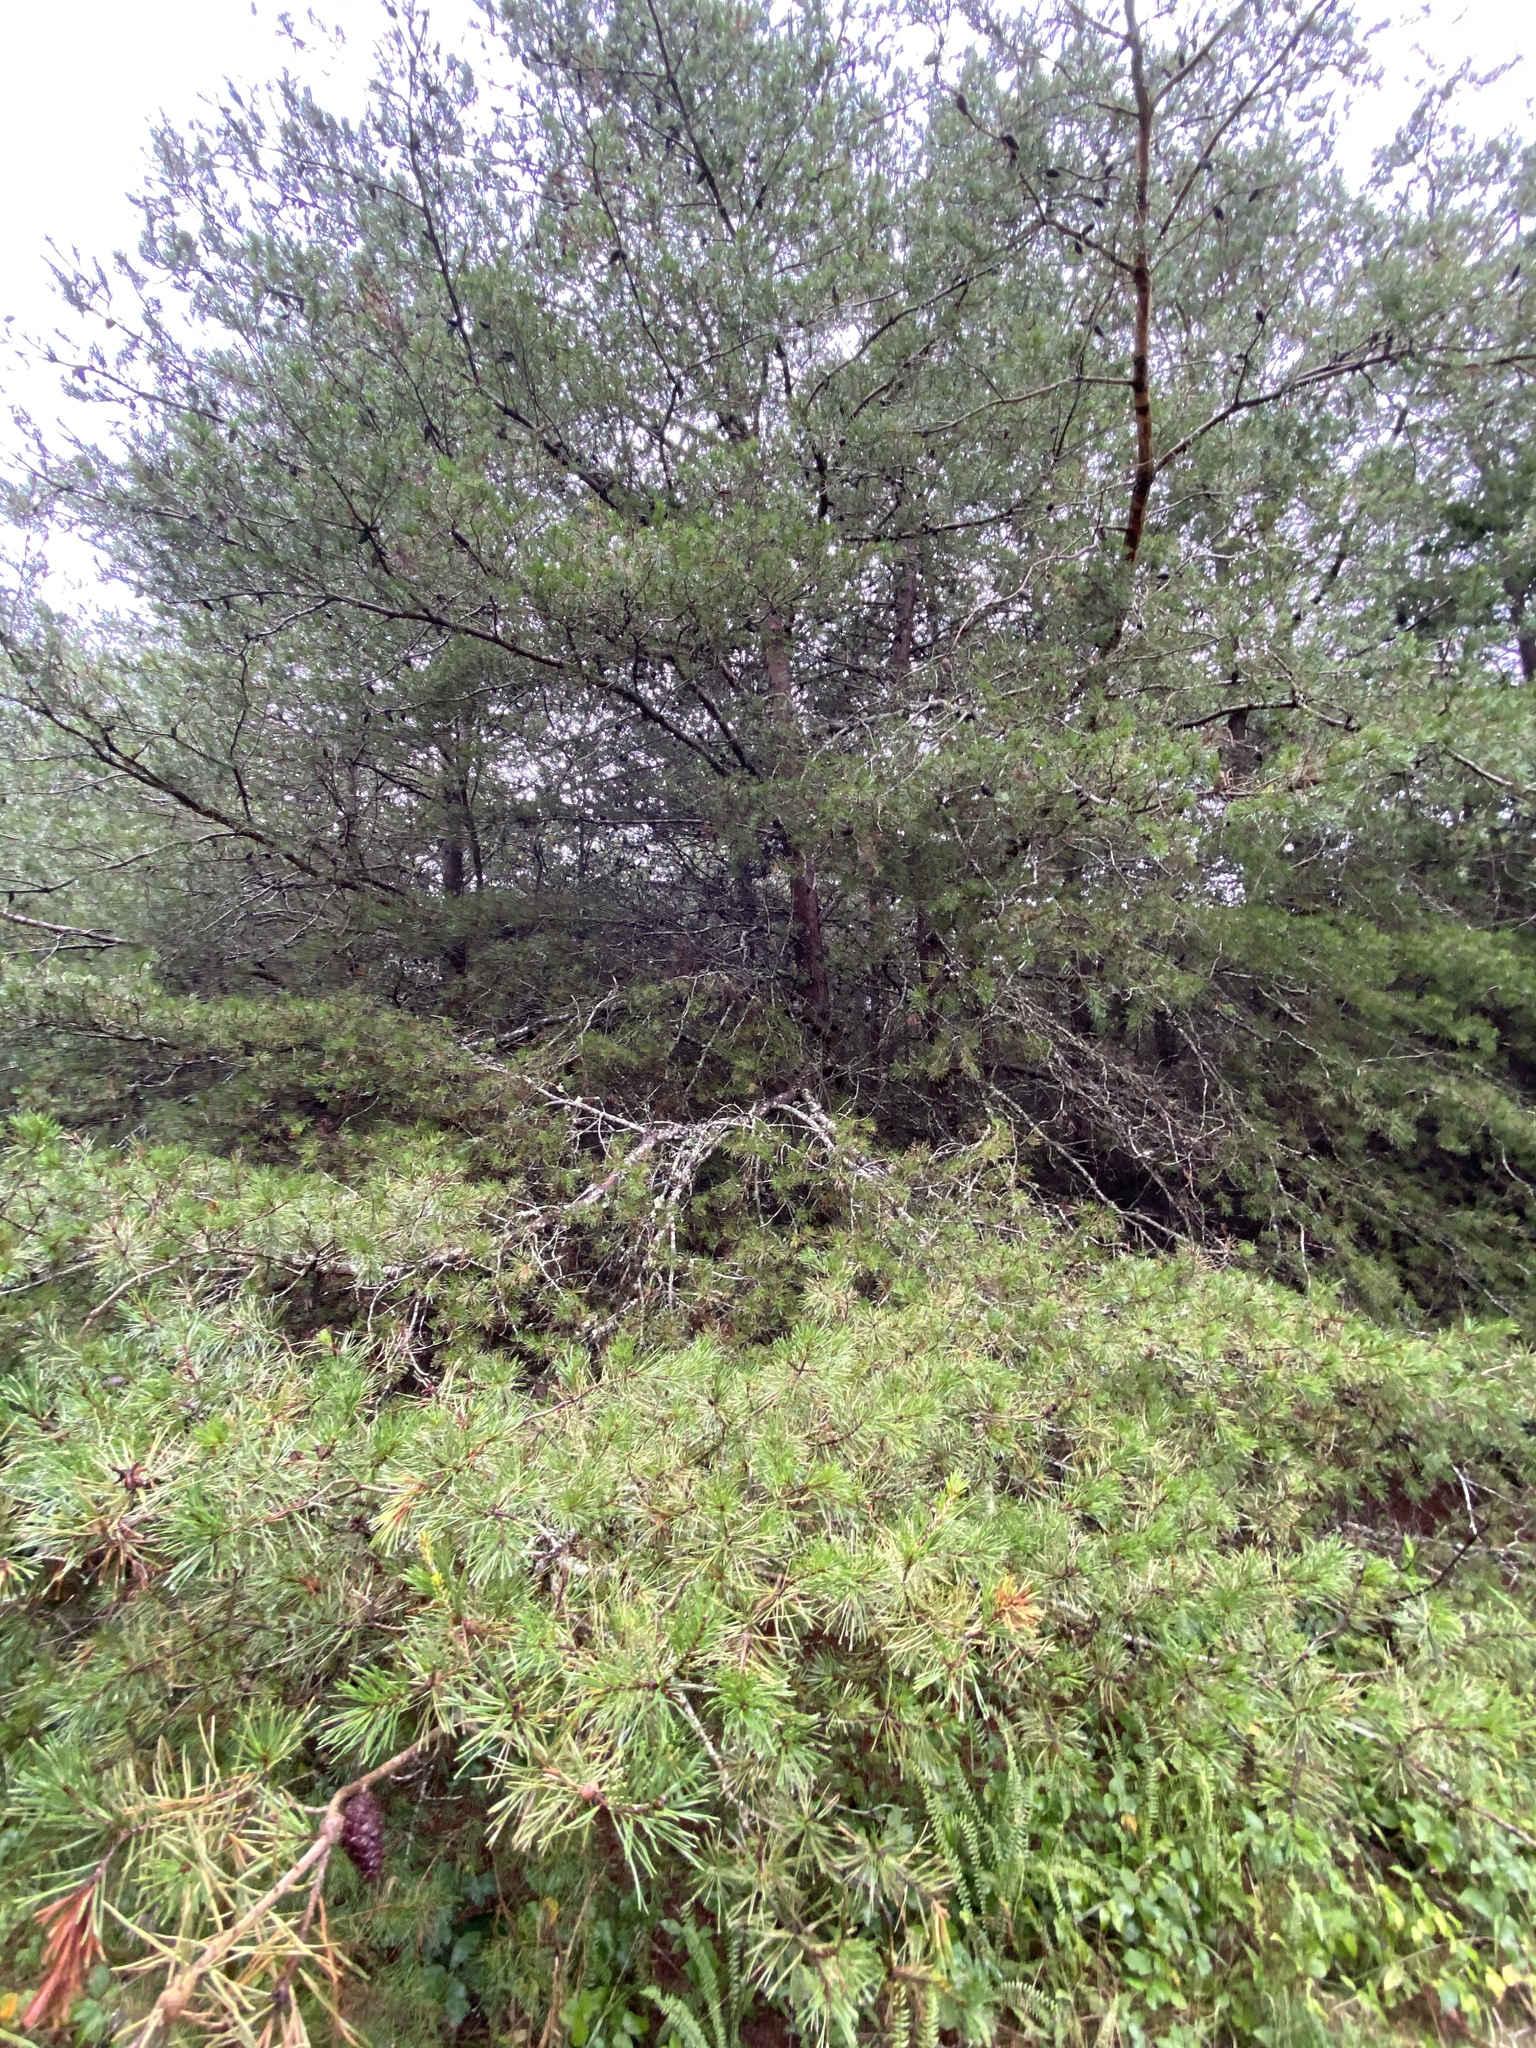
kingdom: Plantae
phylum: Tracheophyta
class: Pinopsida
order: Pinales
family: Pinaceae
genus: Pinus
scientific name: Pinus virginiana
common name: Scrub pine
